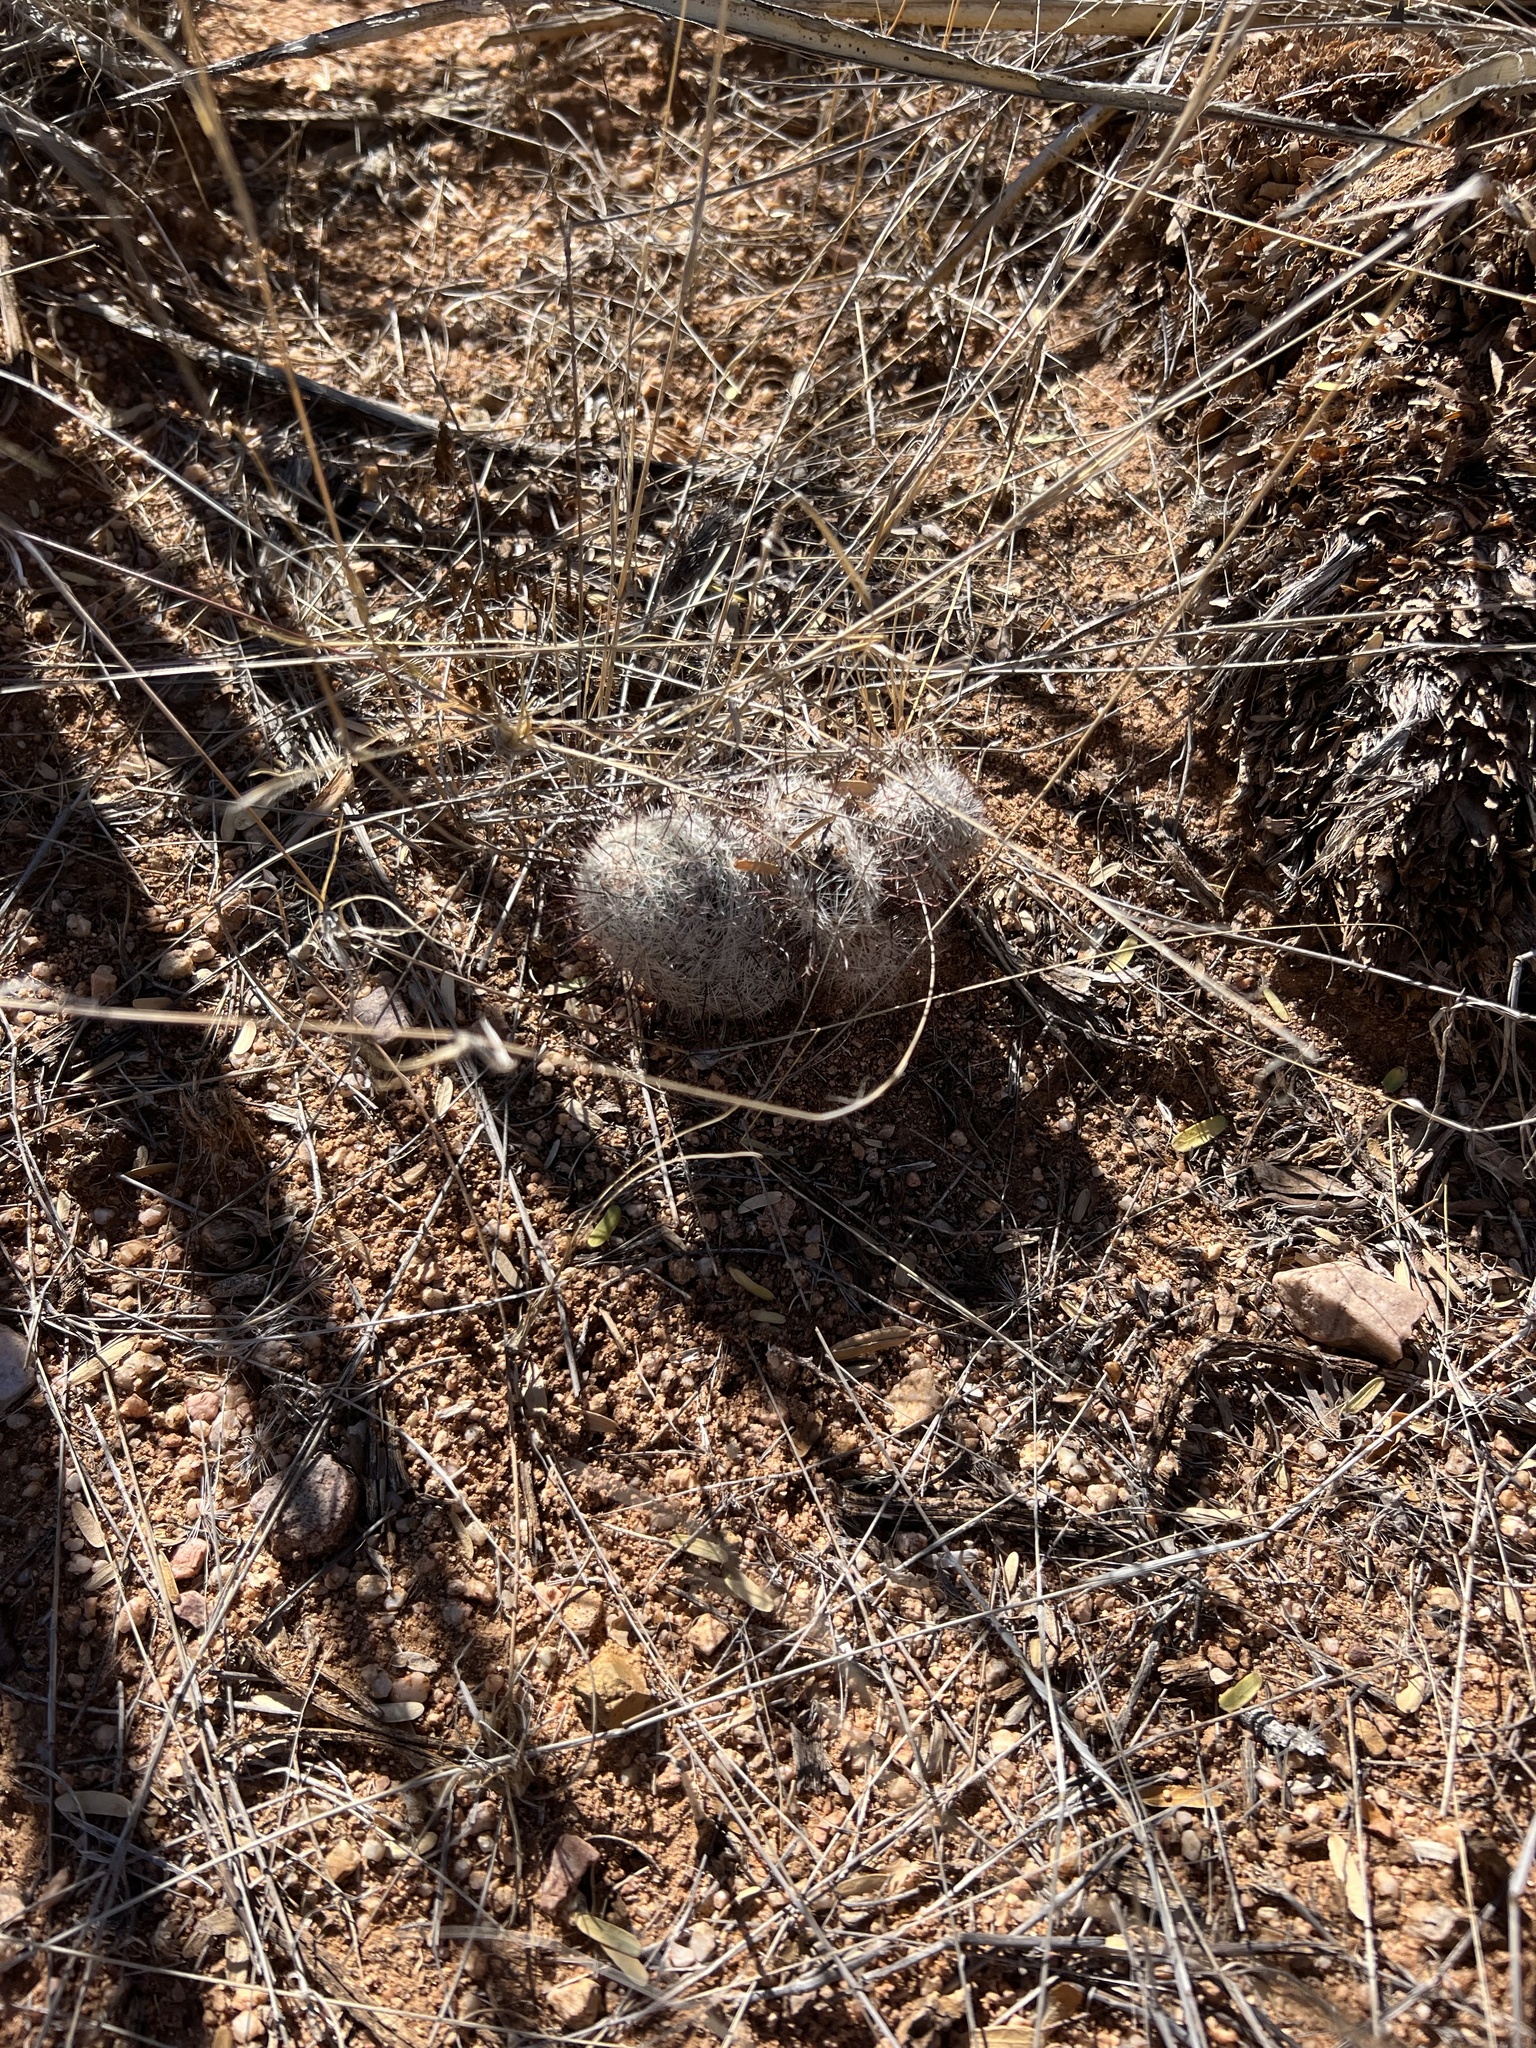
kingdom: Plantae
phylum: Tracheophyta
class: Magnoliopsida
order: Caryophyllales
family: Cactaceae
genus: Cochemiea
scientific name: Cochemiea grahamii
